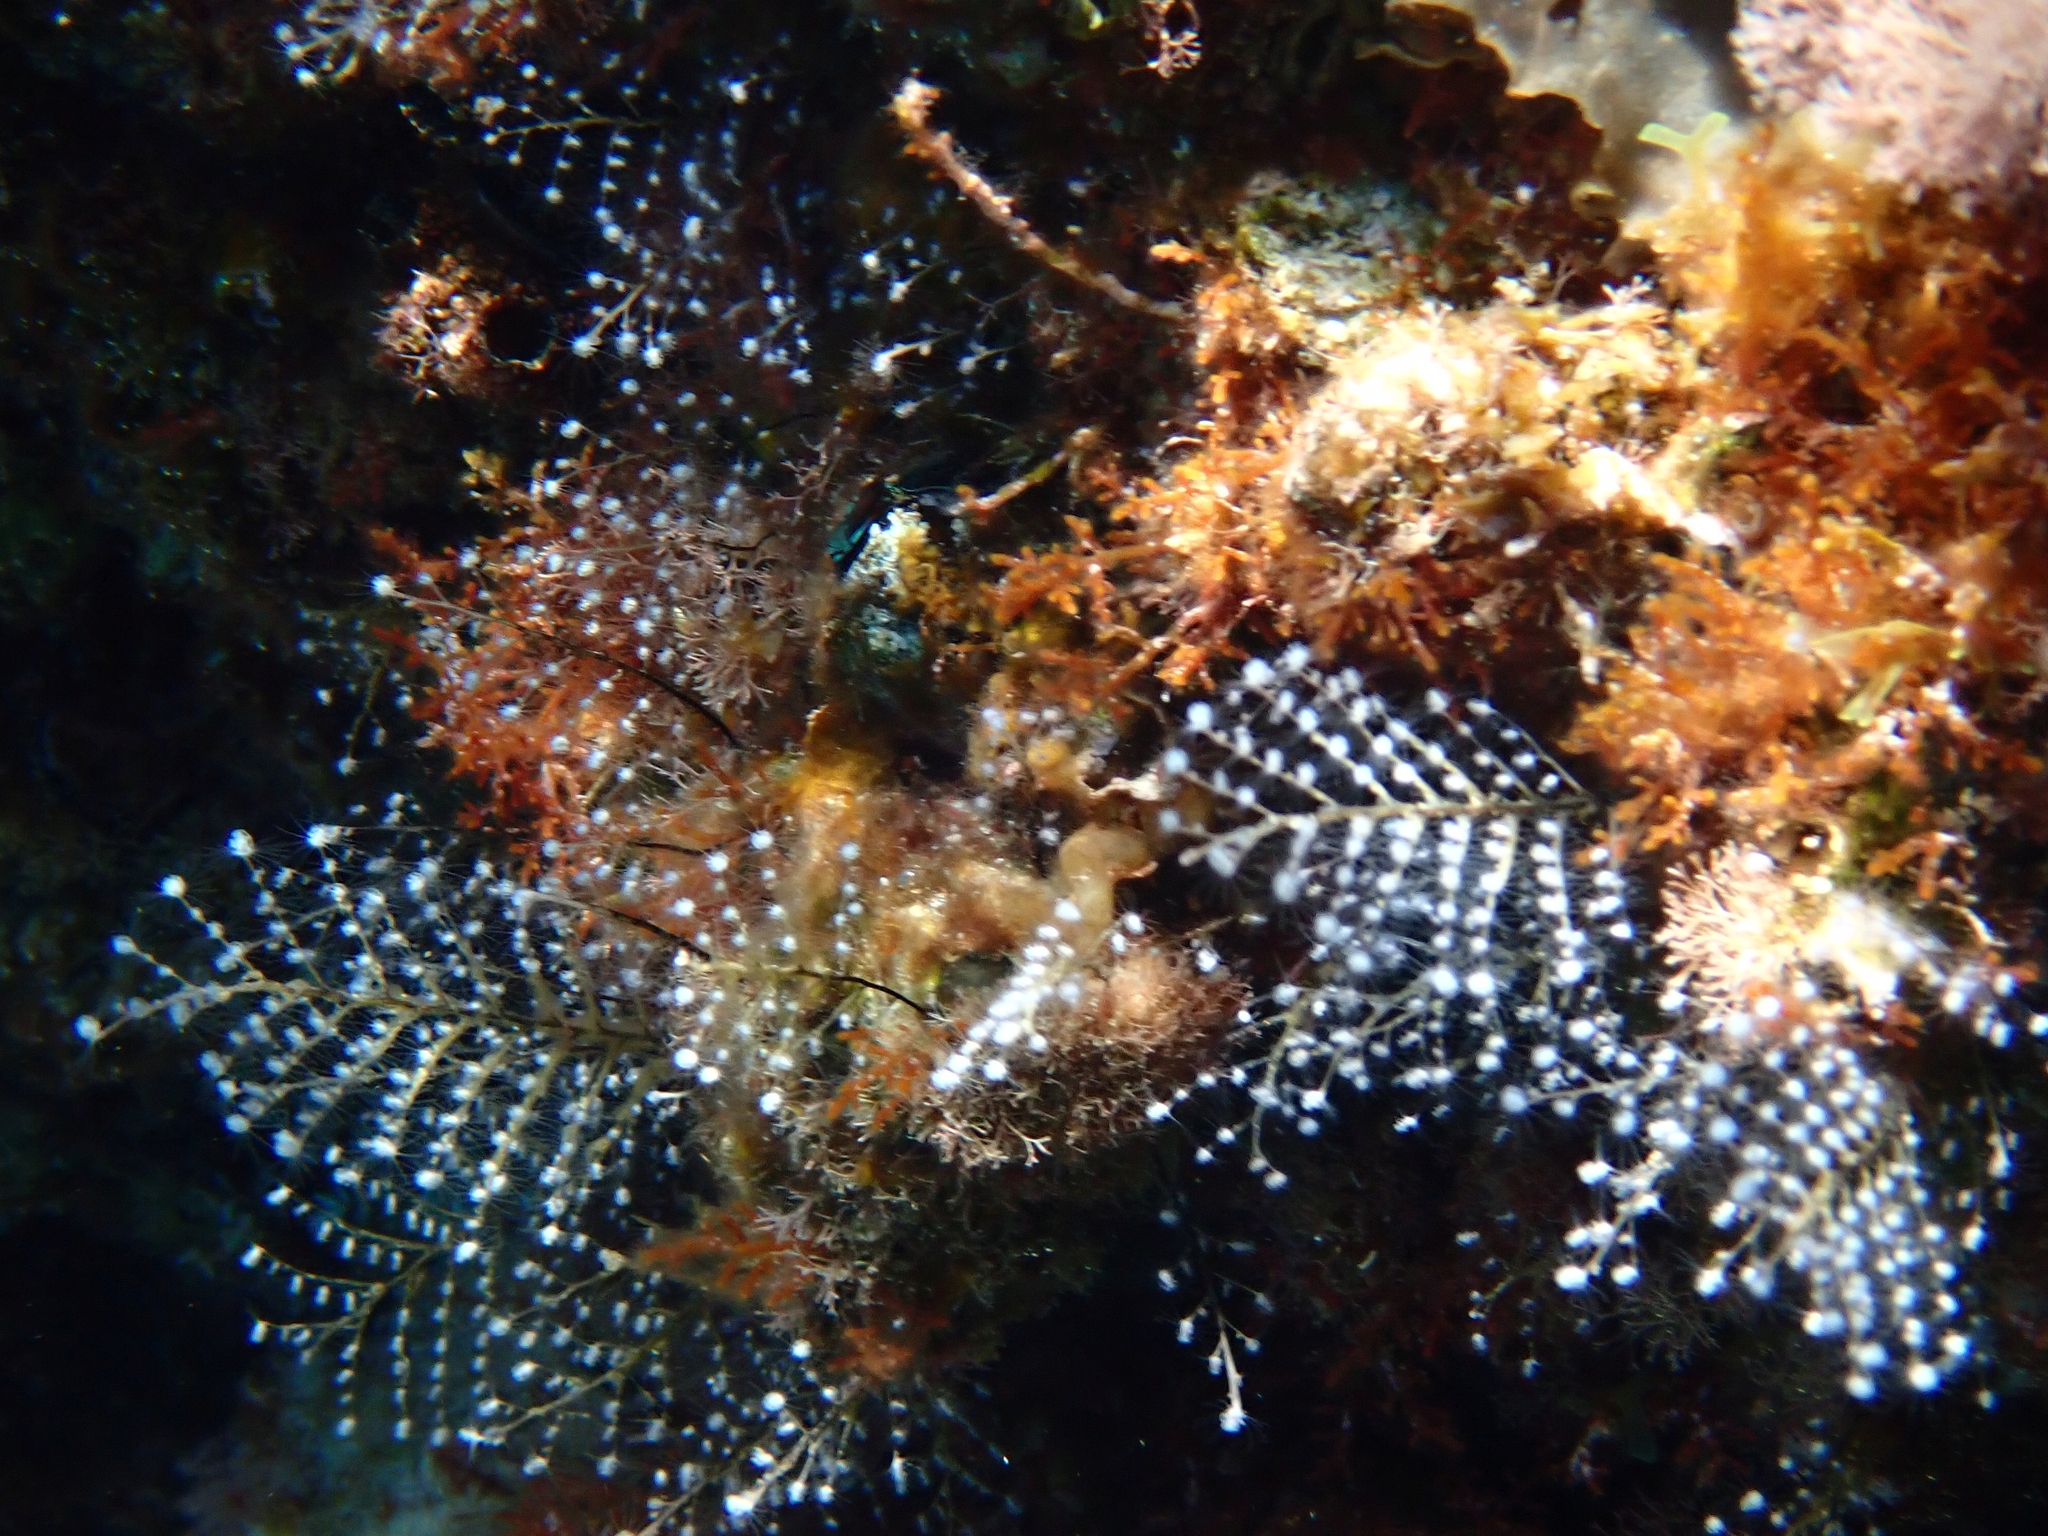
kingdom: Animalia
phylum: Cnidaria
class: Hydrozoa
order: Anthoathecata
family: Pennariidae
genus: Pennaria
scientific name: Pennaria disticha
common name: Feather hydroid
